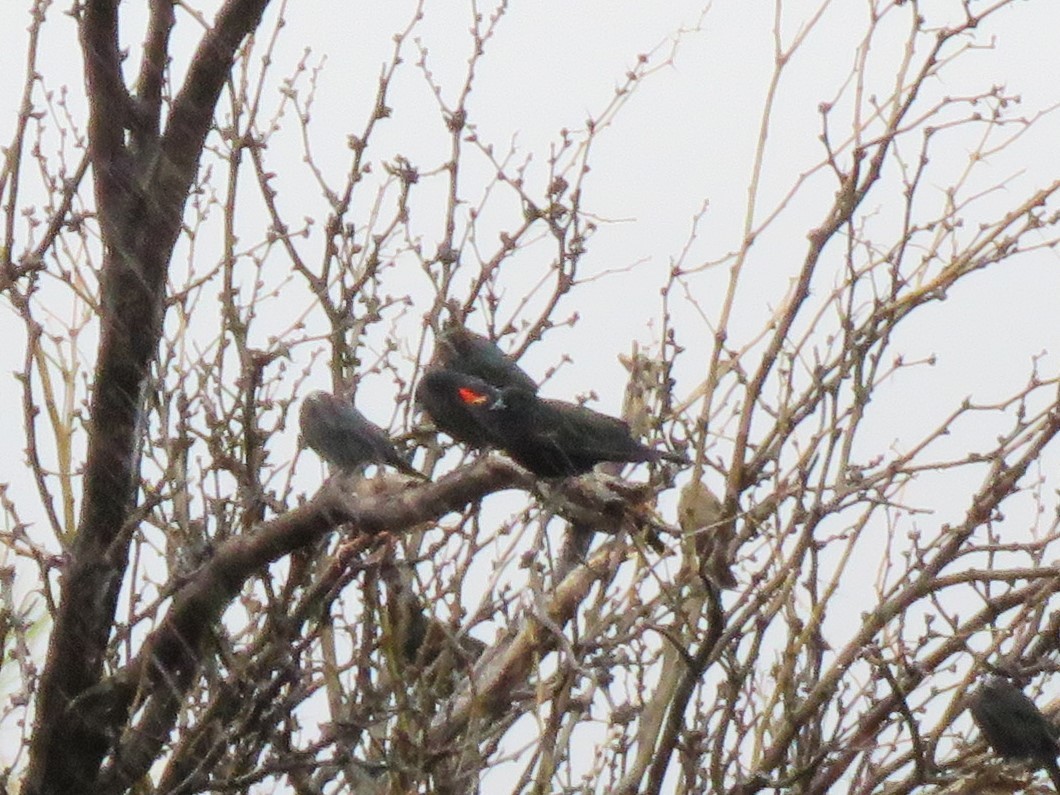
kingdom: Animalia
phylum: Chordata
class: Aves
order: Passeriformes
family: Icteridae
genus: Agelaius
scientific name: Agelaius phoeniceus
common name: Red-winged blackbird
